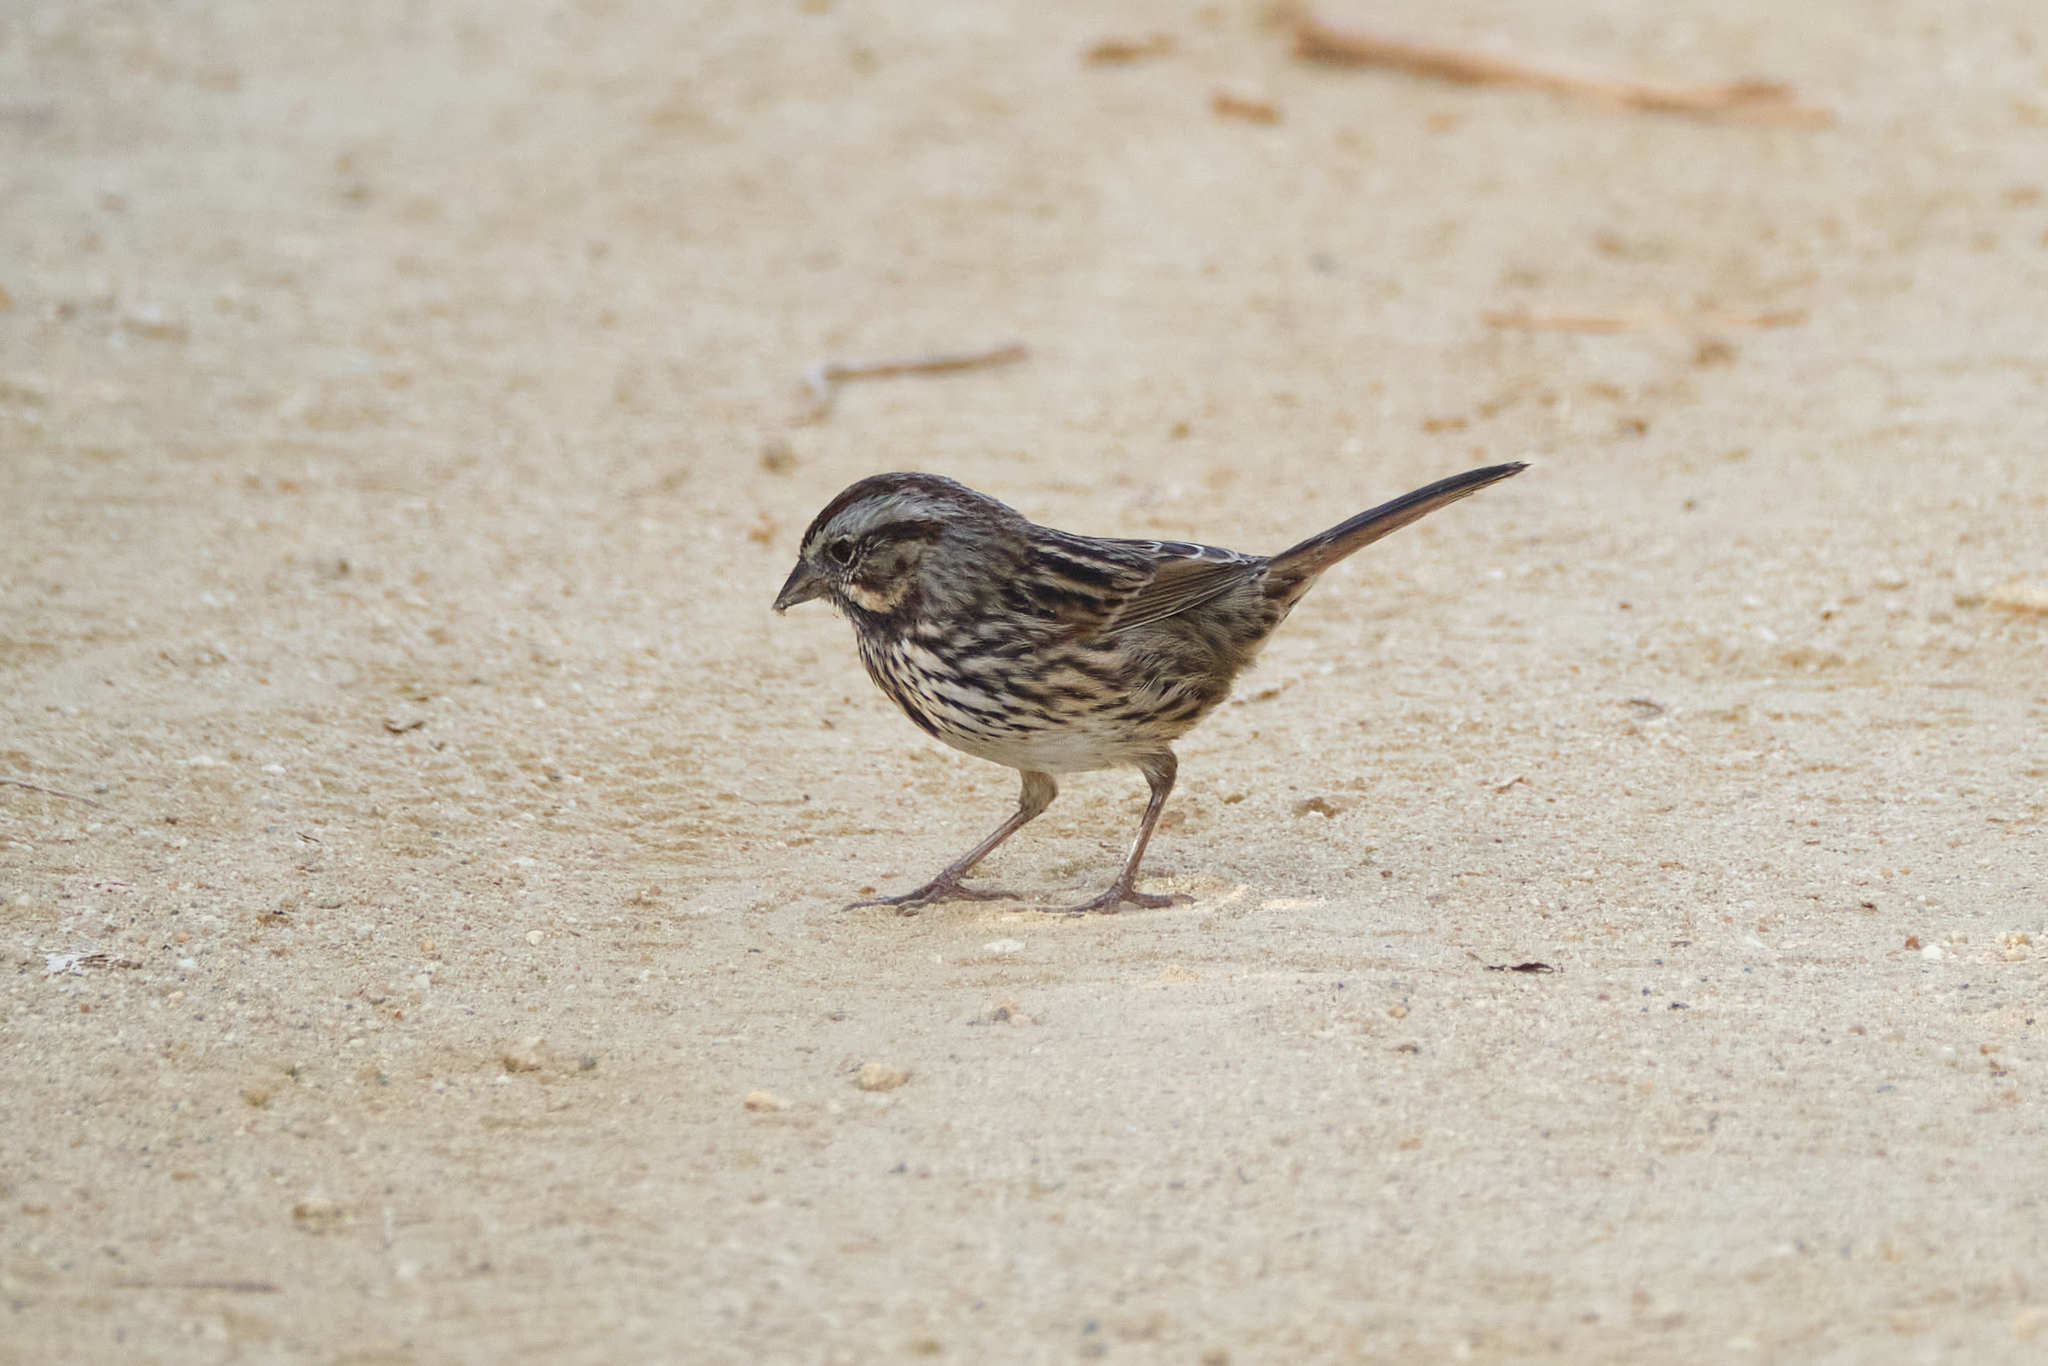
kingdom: Animalia
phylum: Chordata
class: Aves
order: Passeriformes
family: Passerellidae
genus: Melospiza
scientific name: Melospiza melodia
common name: Song sparrow
